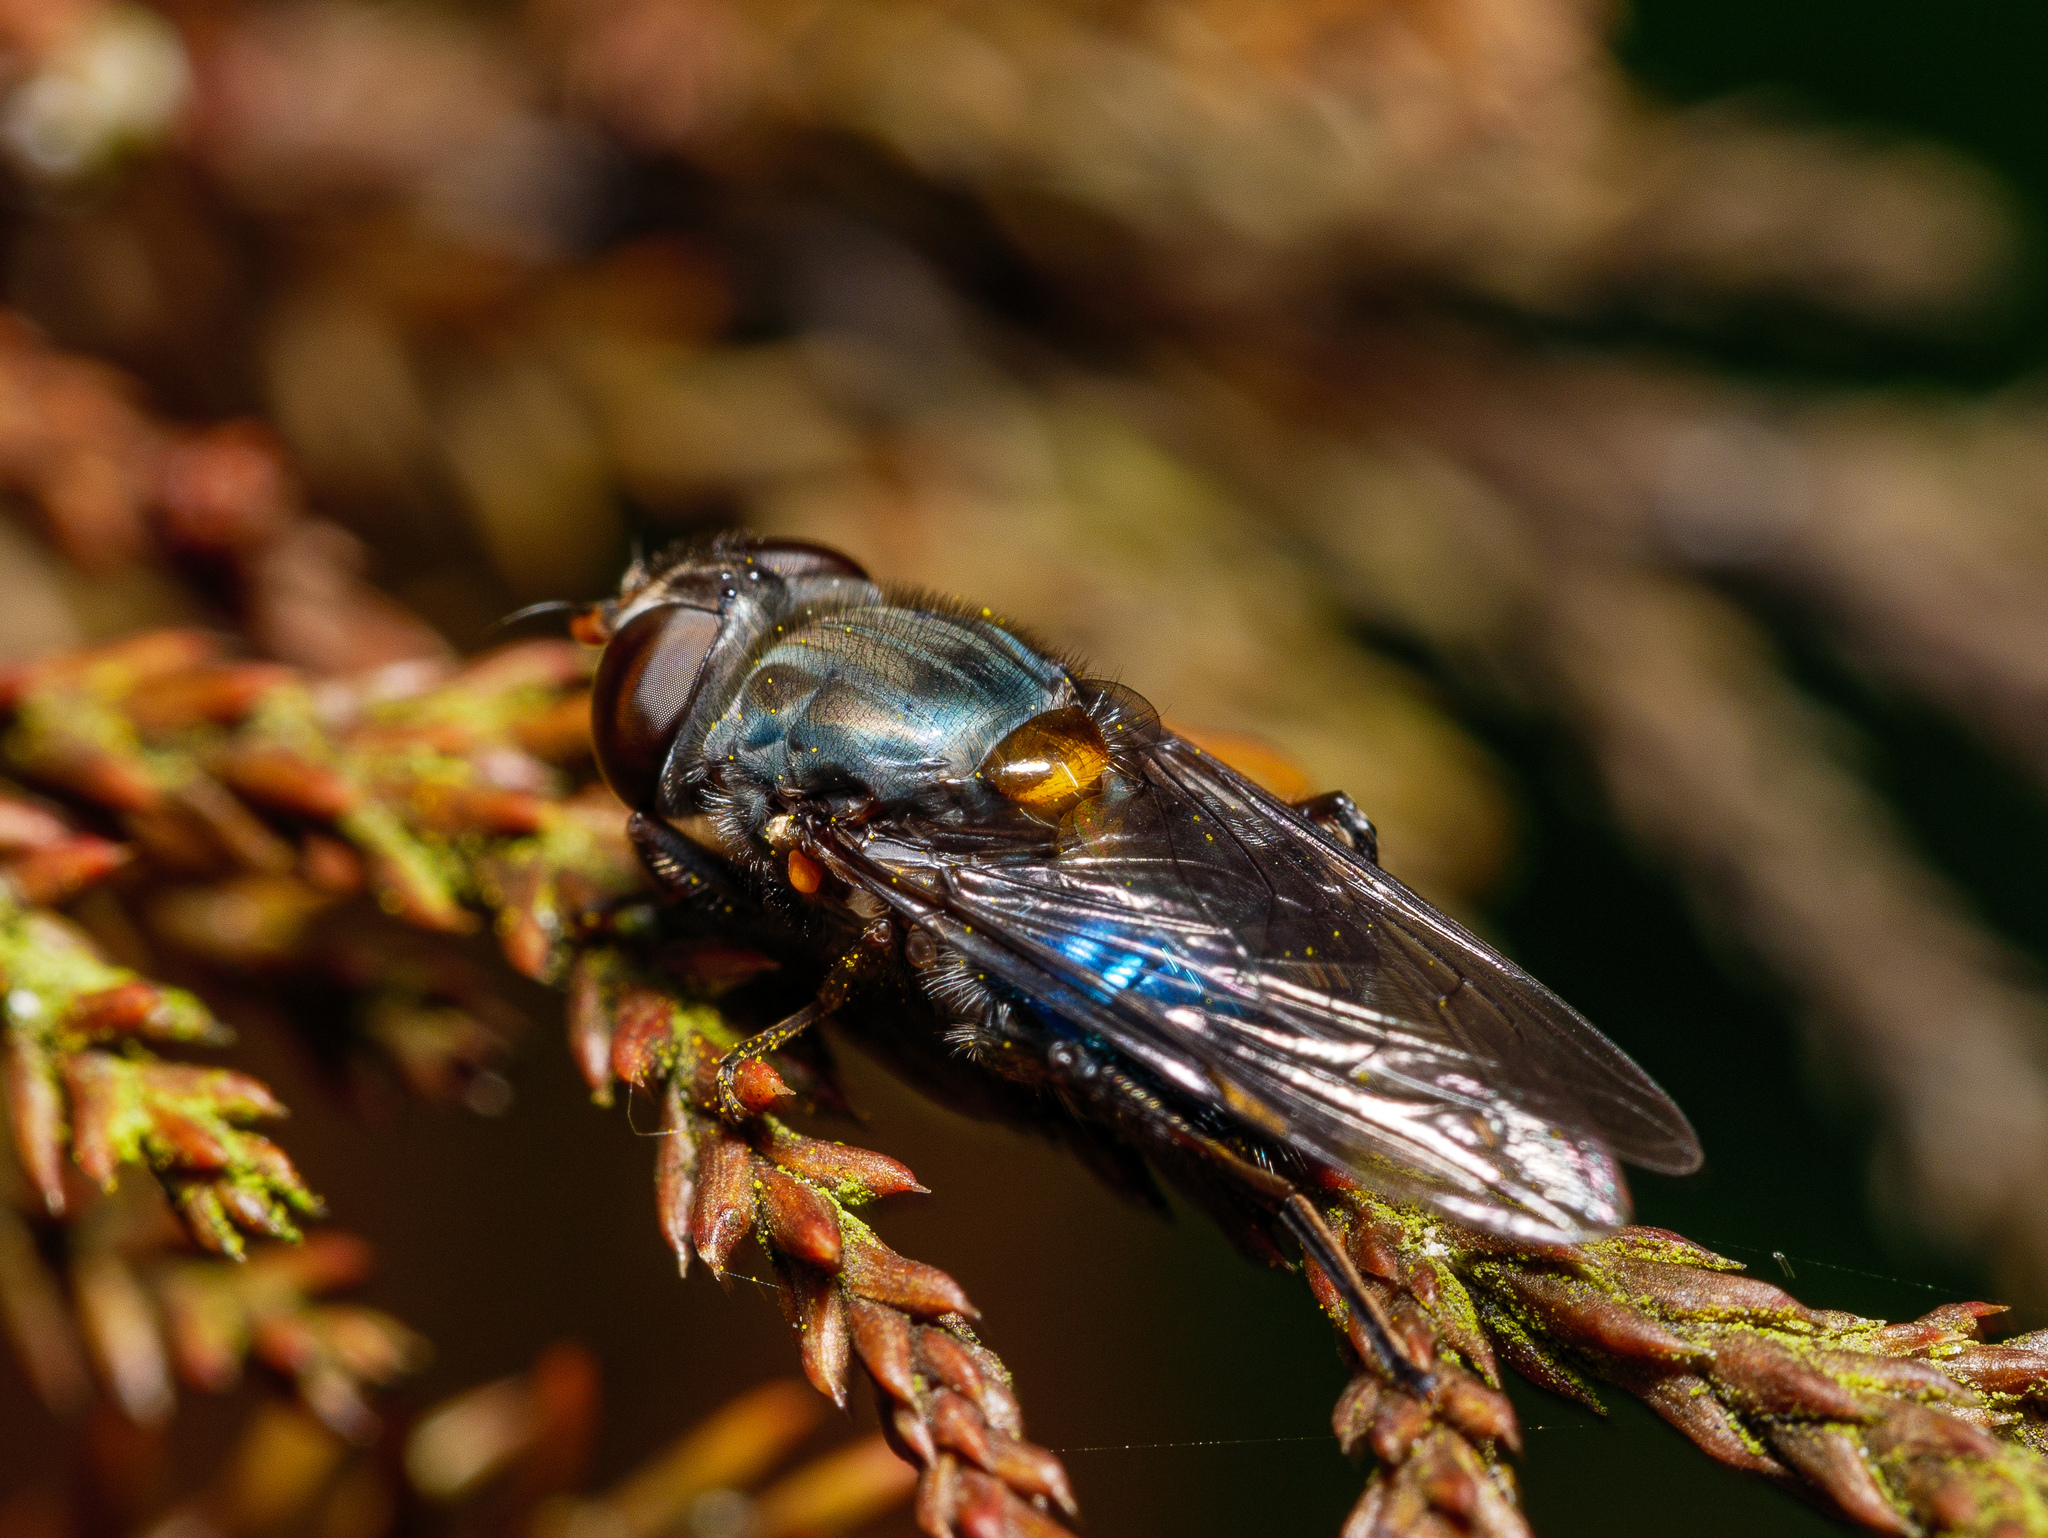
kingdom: Animalia
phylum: Arthropoda
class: Insecta
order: Diptera
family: Syrphidae
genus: Helophilus
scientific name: Helophilus hochstetteri
